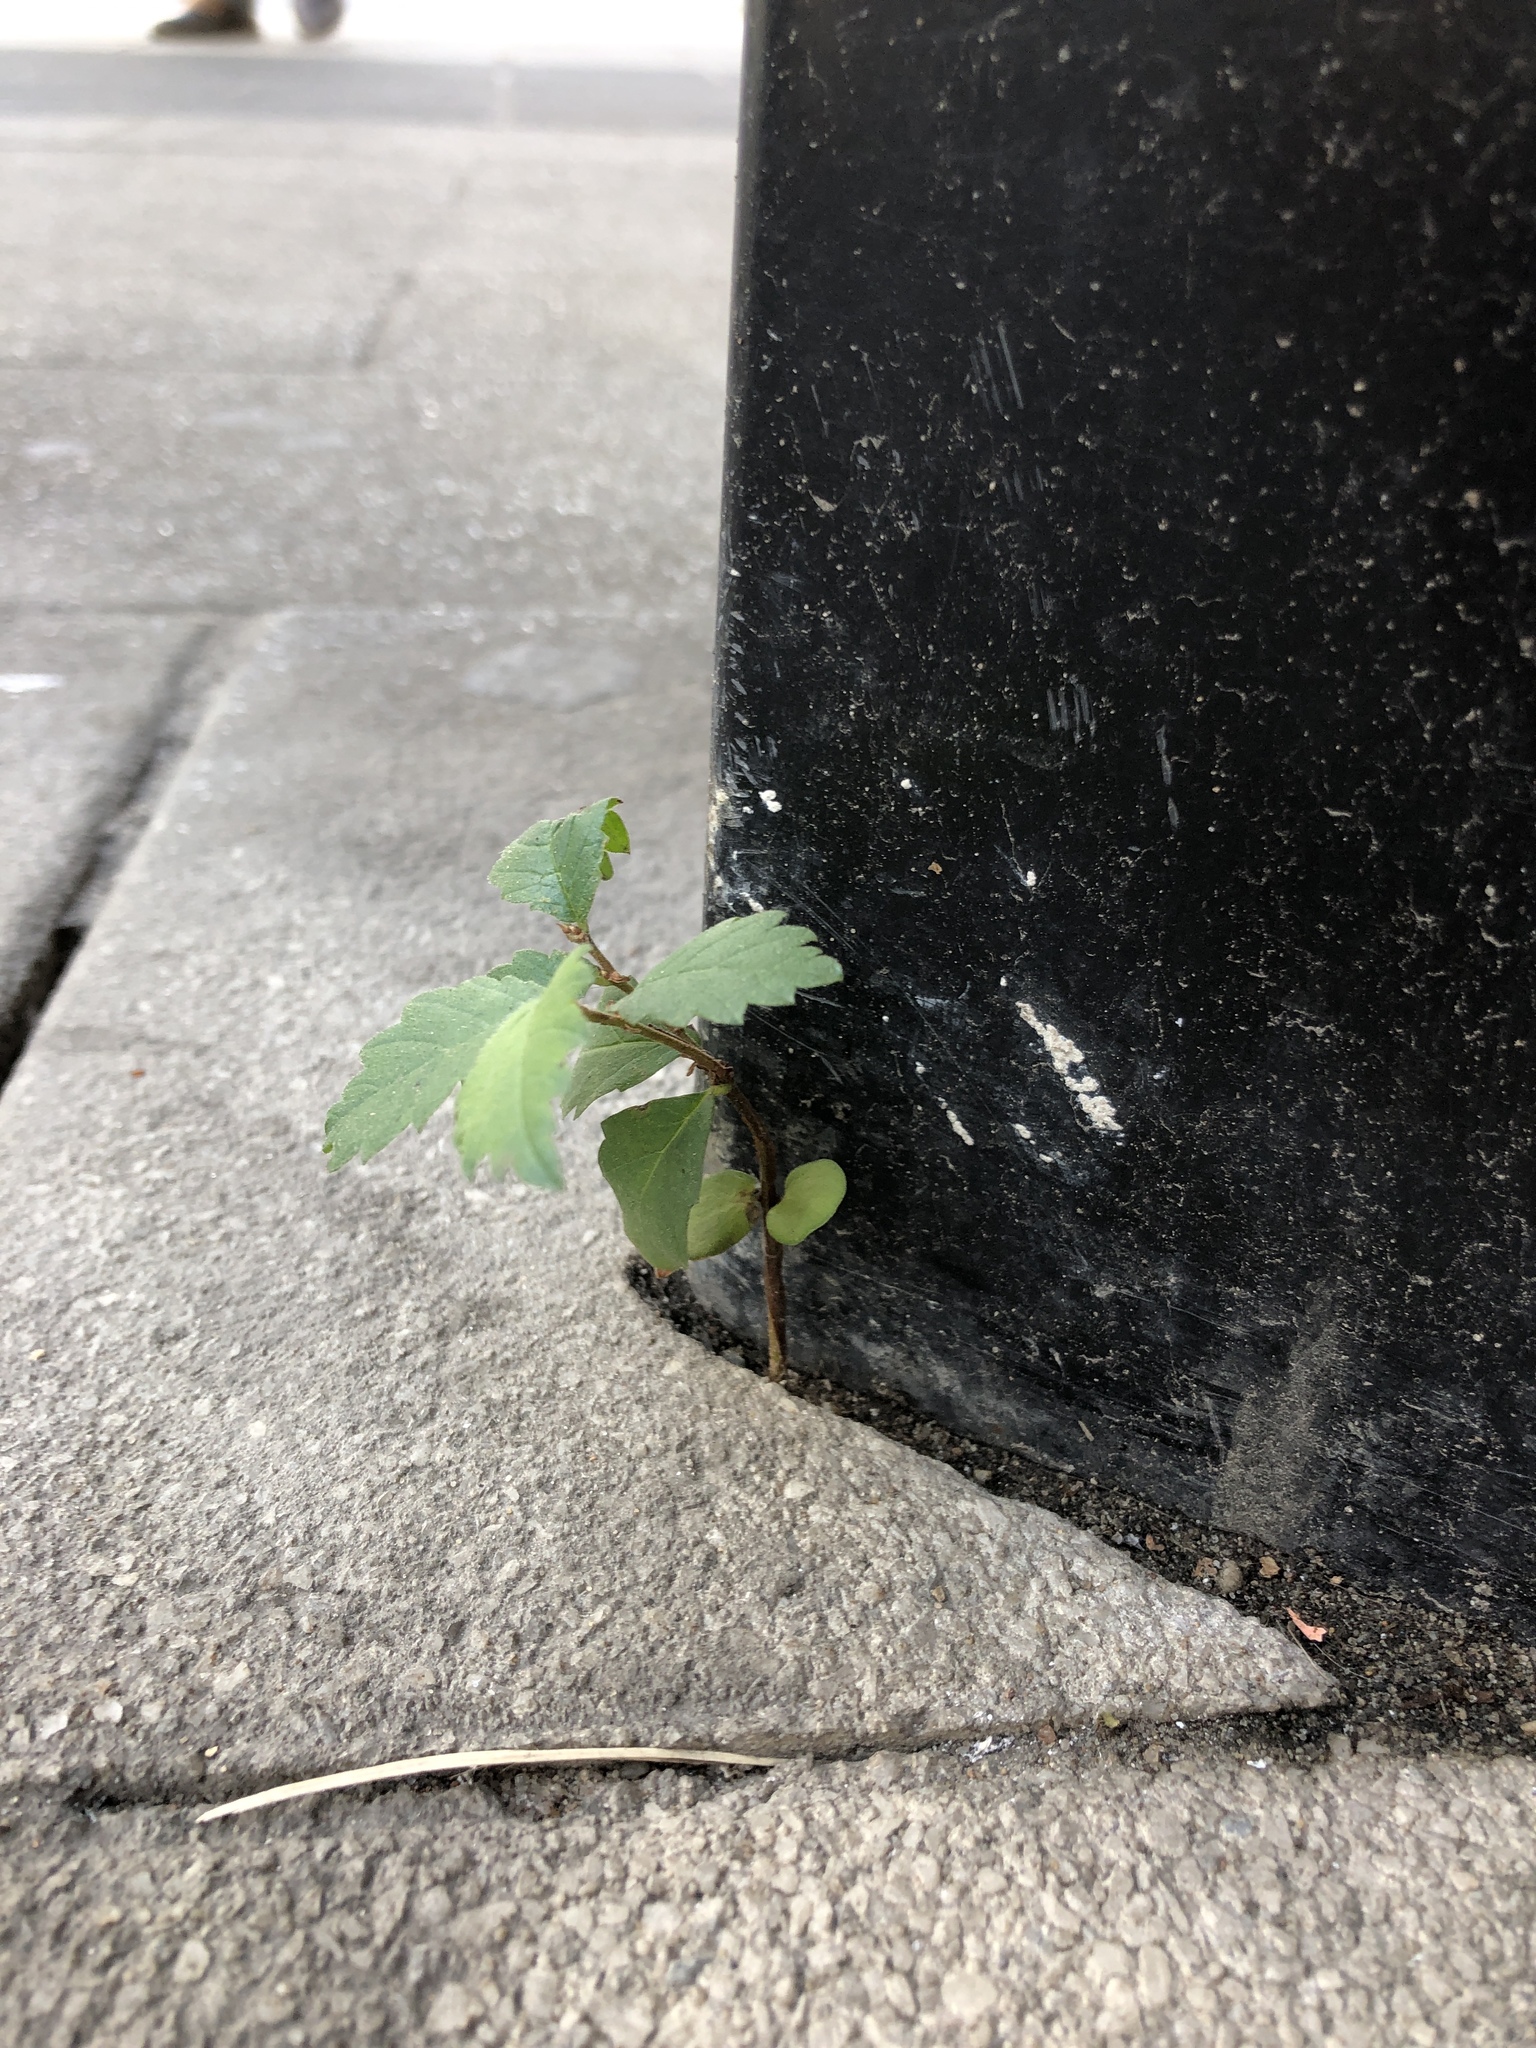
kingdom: Plantae
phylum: Tracheophyta
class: Magnoliopsida
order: Rosales
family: Ulmaceae
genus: Ulmus
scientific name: Ulmus pumila
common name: Siberian elm
